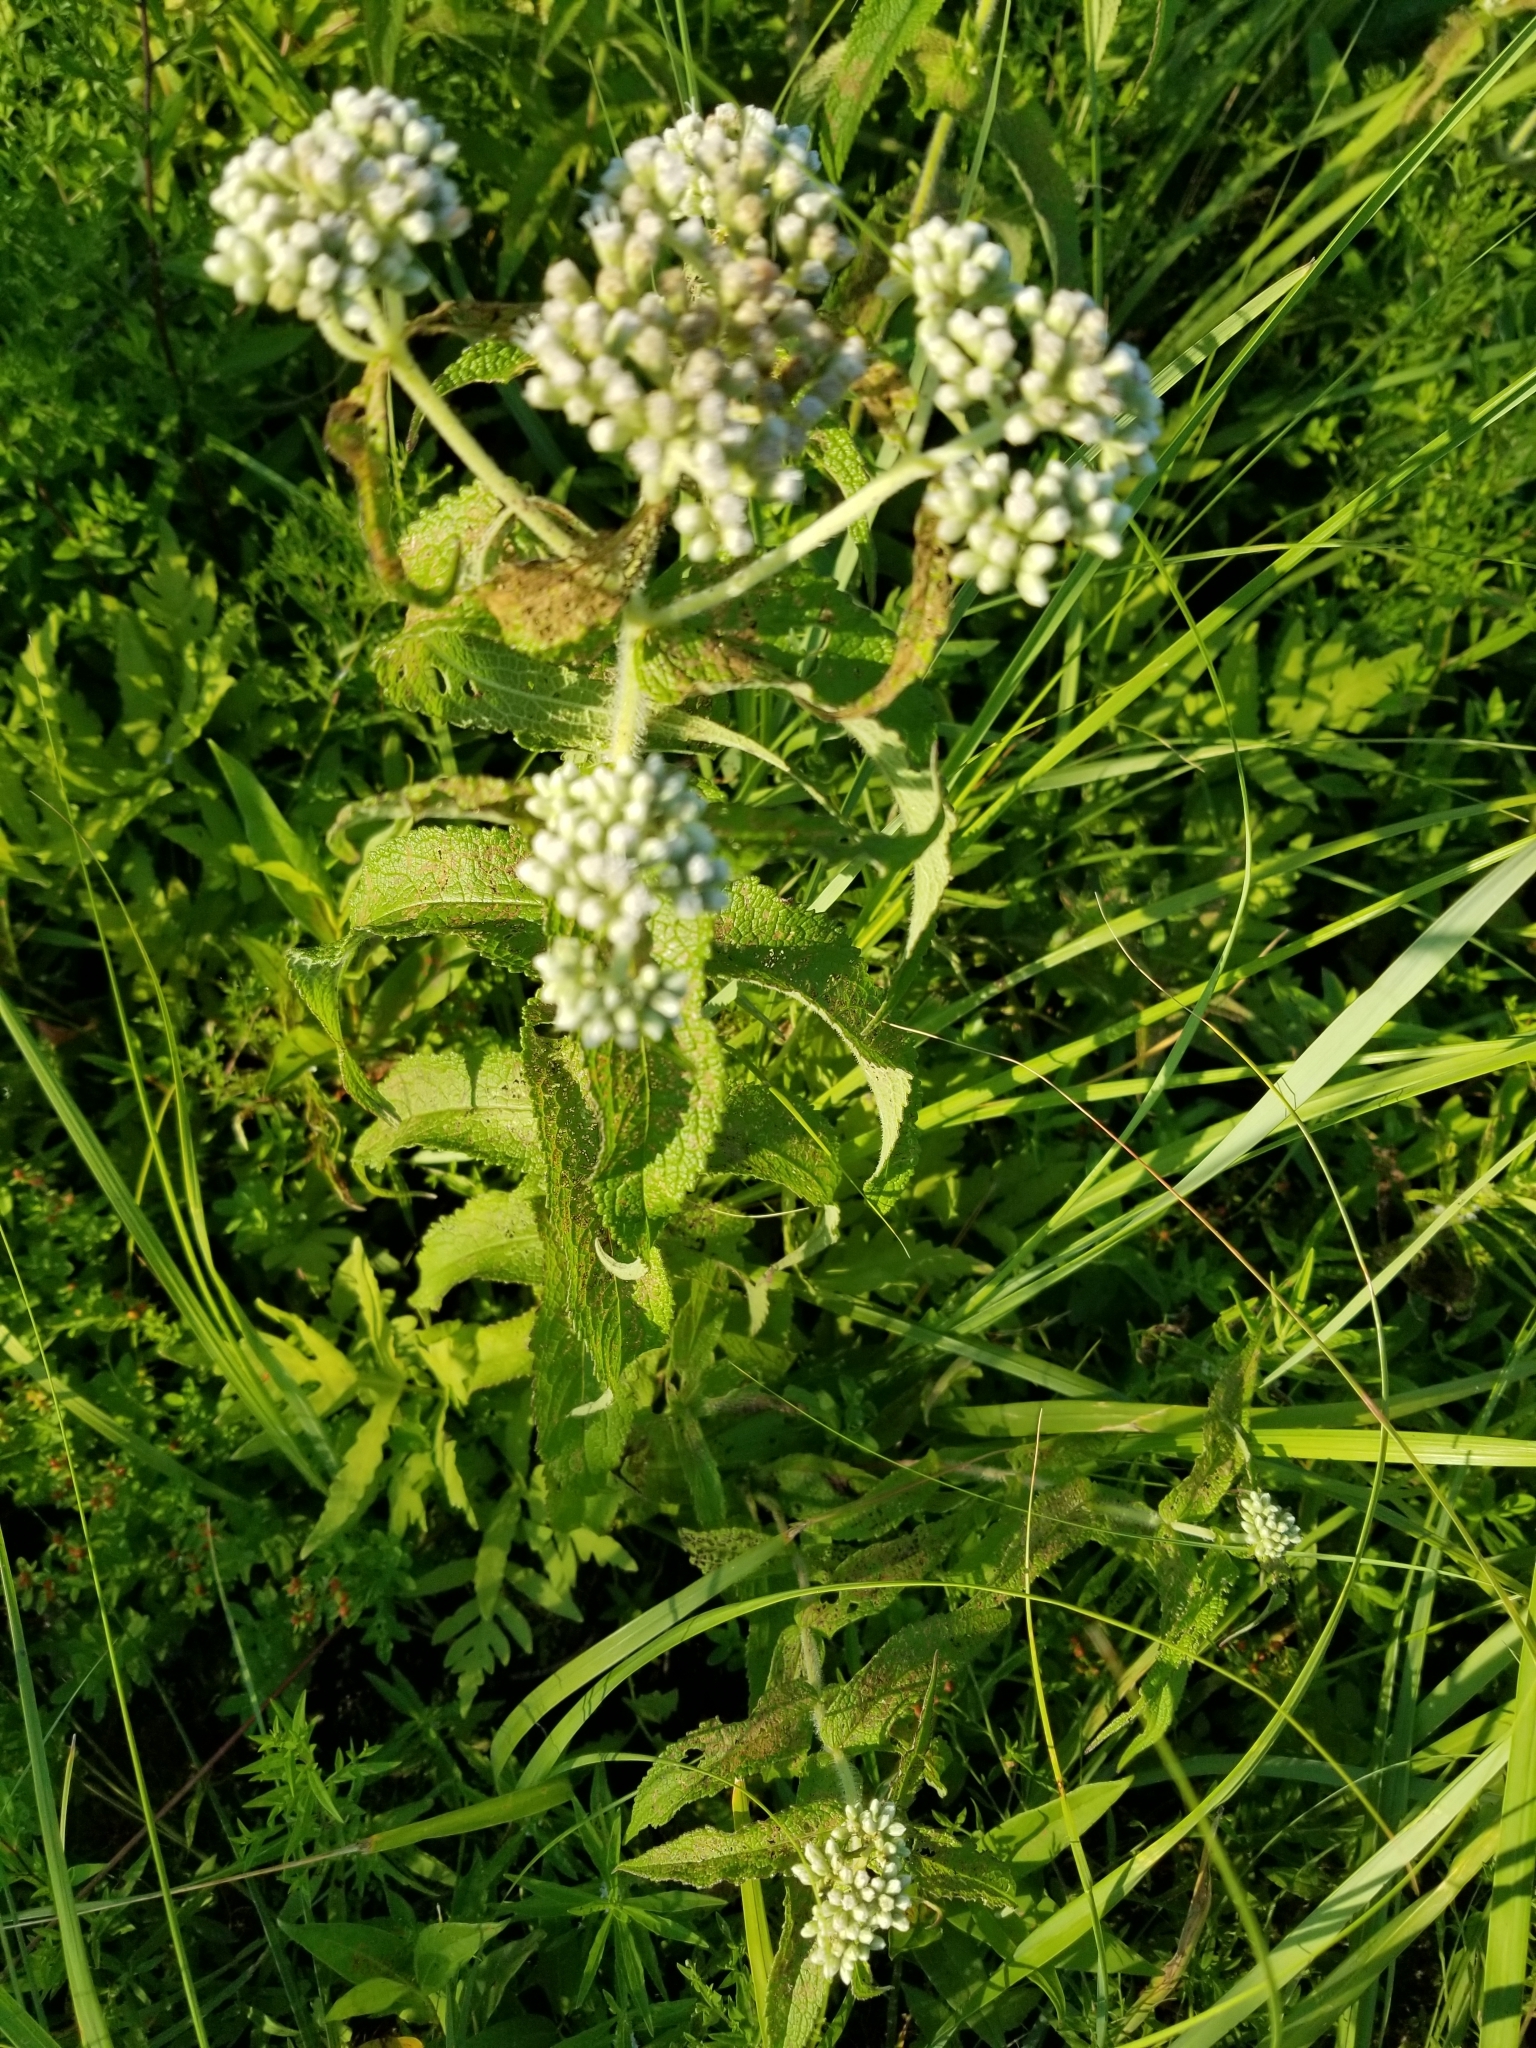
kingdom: Plantae
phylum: Tracheophyta
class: Magnoliopsida
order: Asterales
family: Asteraceae
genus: Eupatorium
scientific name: Eupatorium perfoliatum
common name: Boneset
